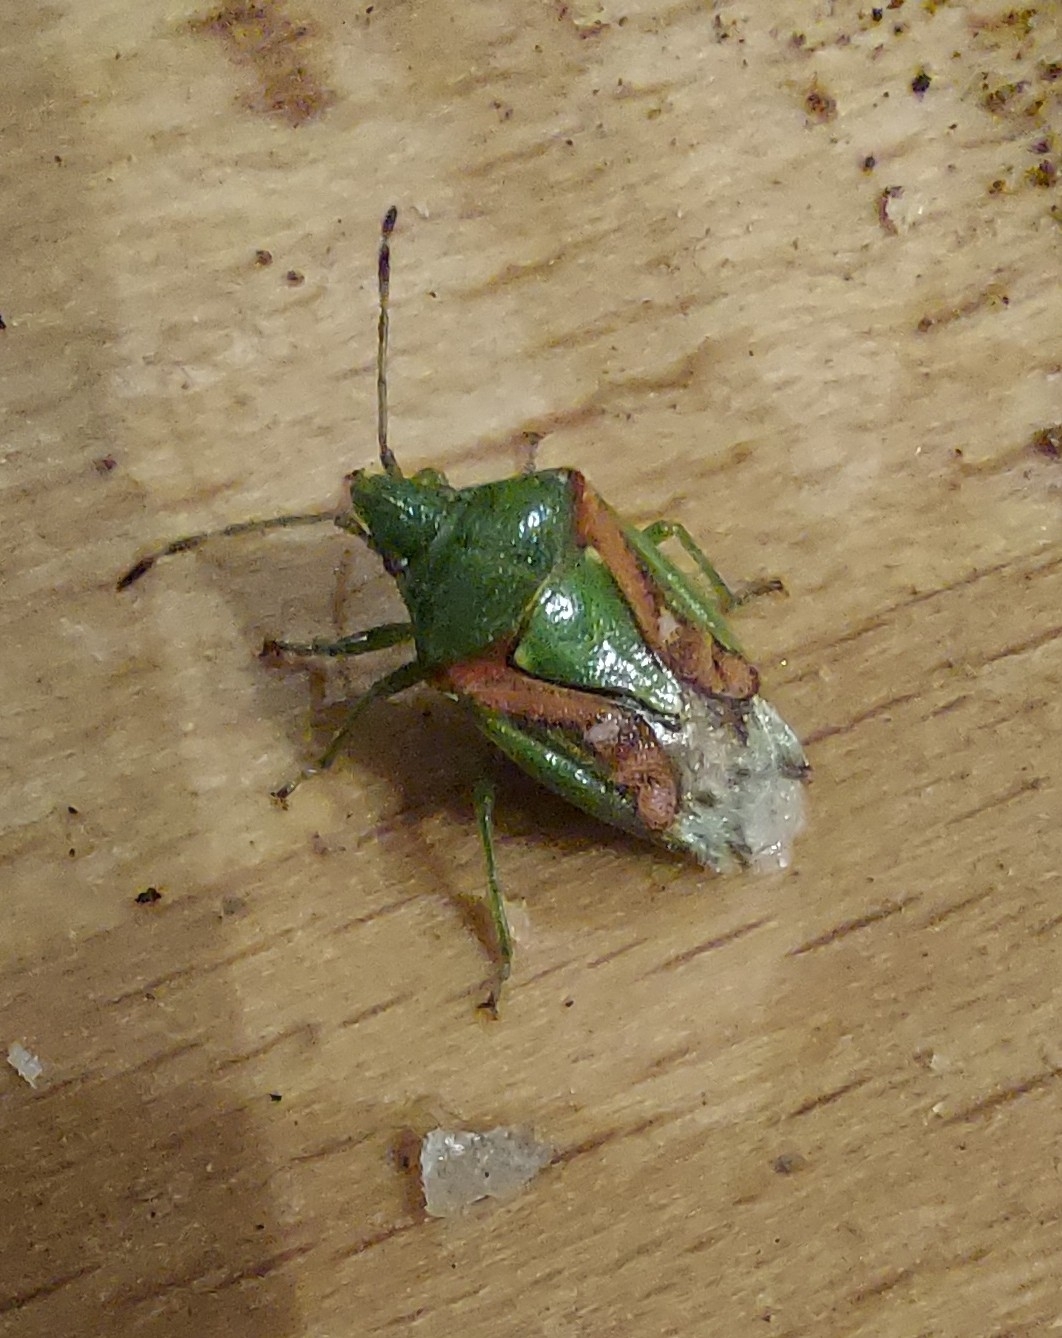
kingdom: Animalia
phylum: Arthropoda
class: Insecta
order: Hemiptera
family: Acanthosomatidae
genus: Cyphostethus
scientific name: Cyphostethus tristriatus
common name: Juniper shieldbug
